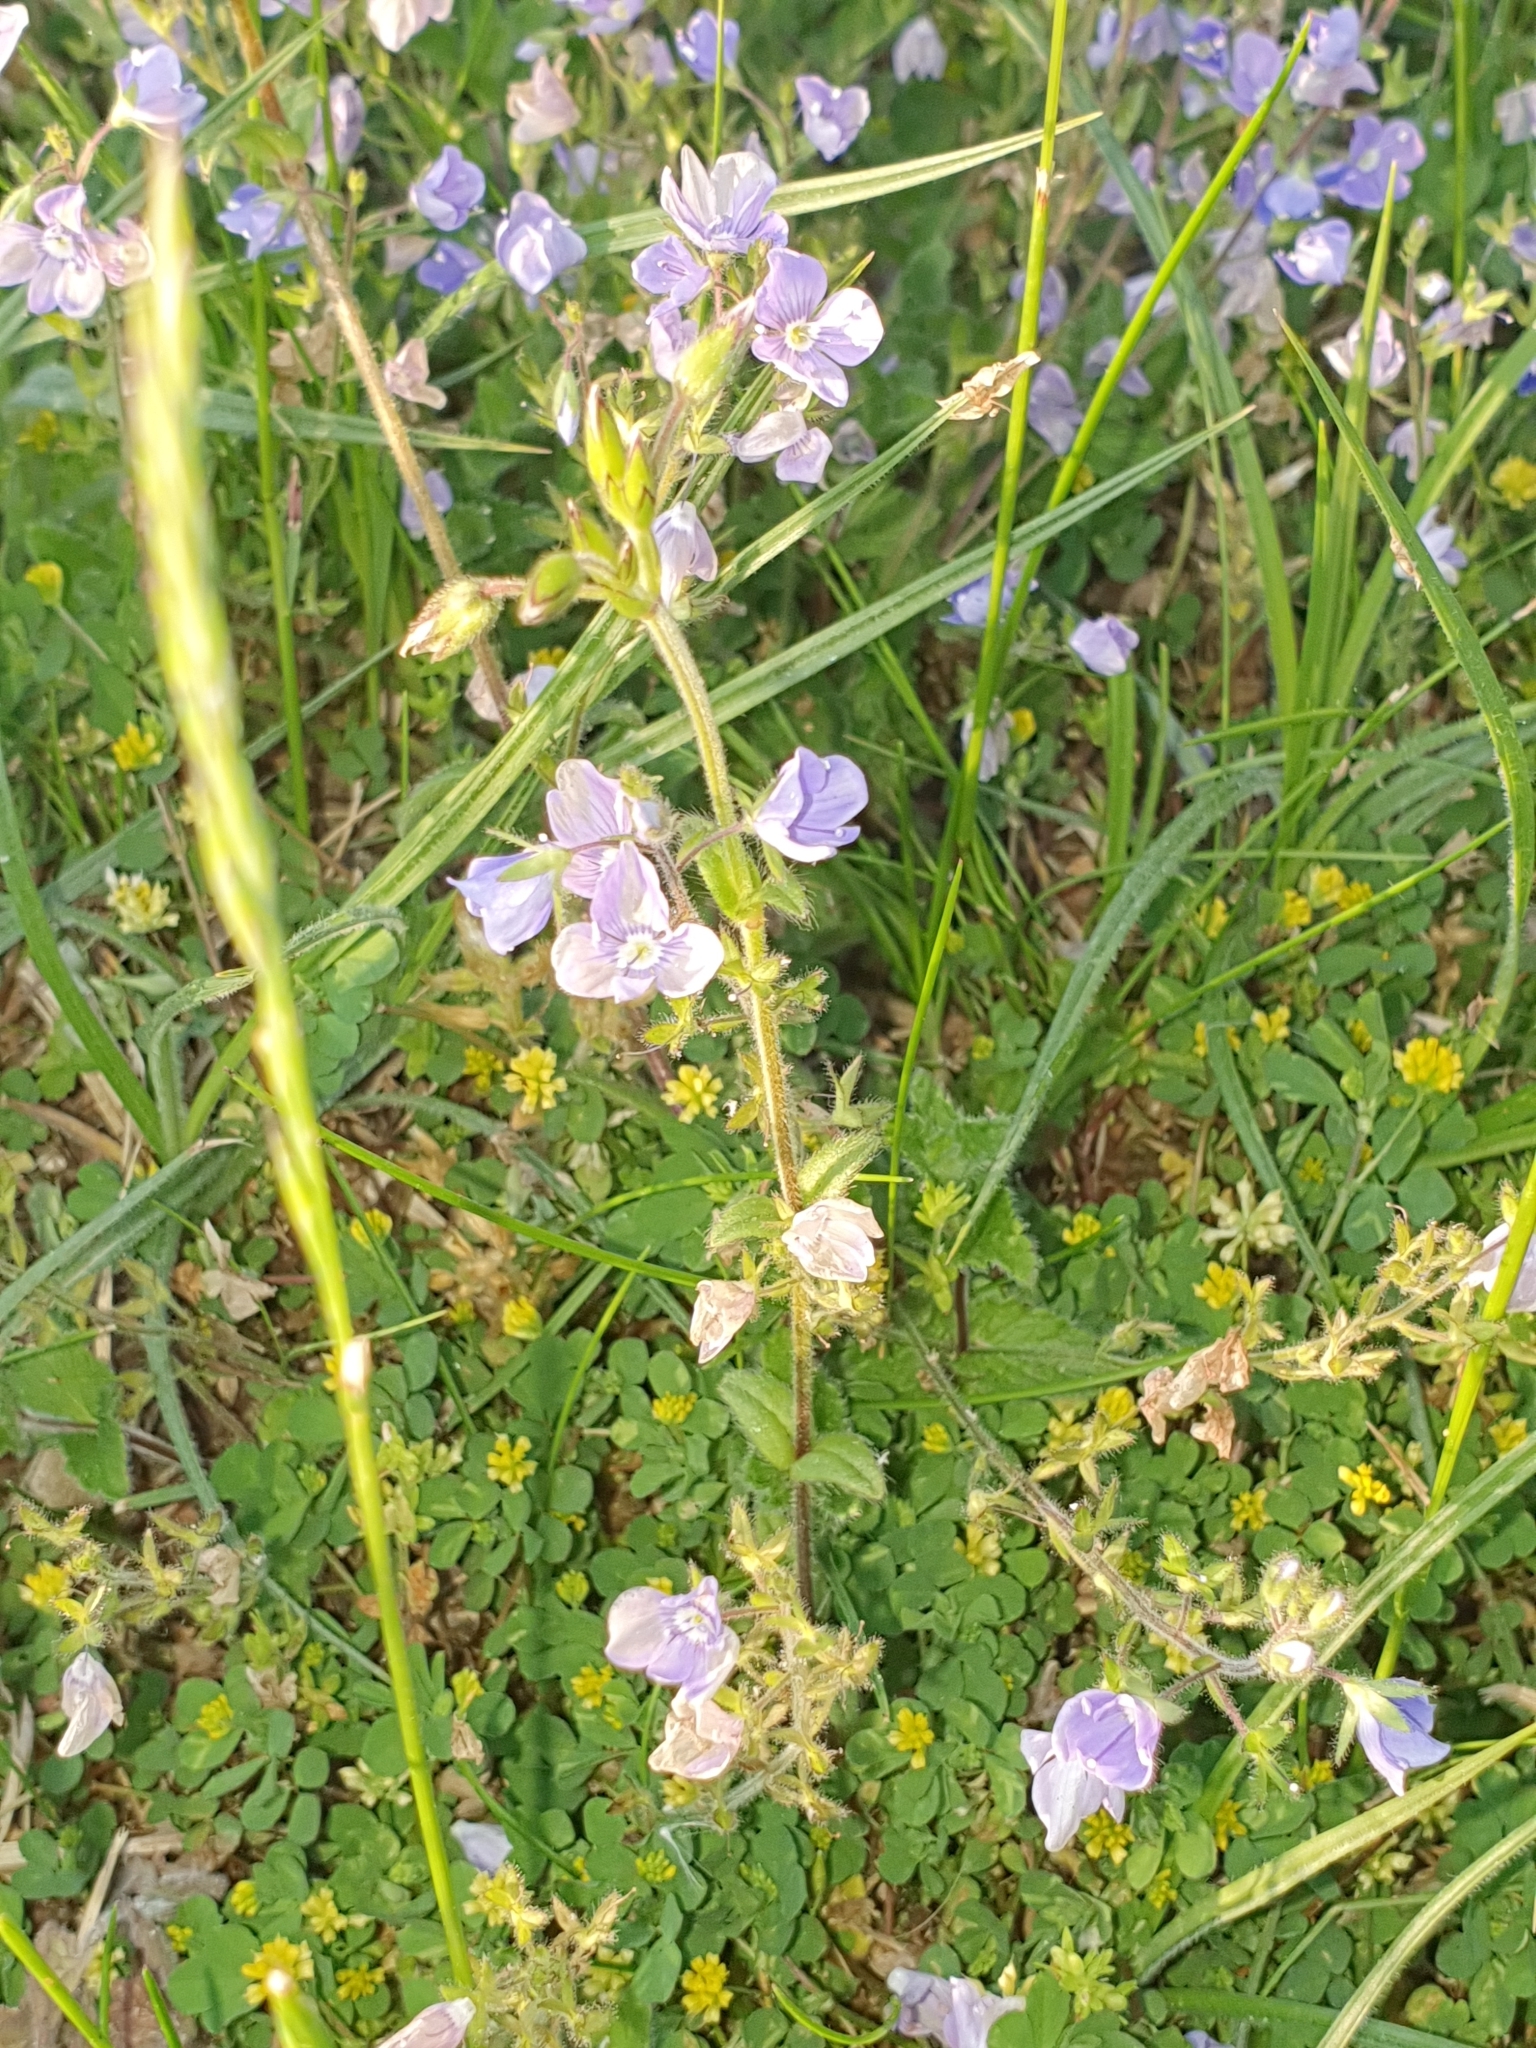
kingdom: Plantae
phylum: Tracheophyta
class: Magnoliopsida
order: Lamiales
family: Plantaginaceae
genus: Veronica
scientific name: Veronica chamaedrys
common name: Germander speedwell
